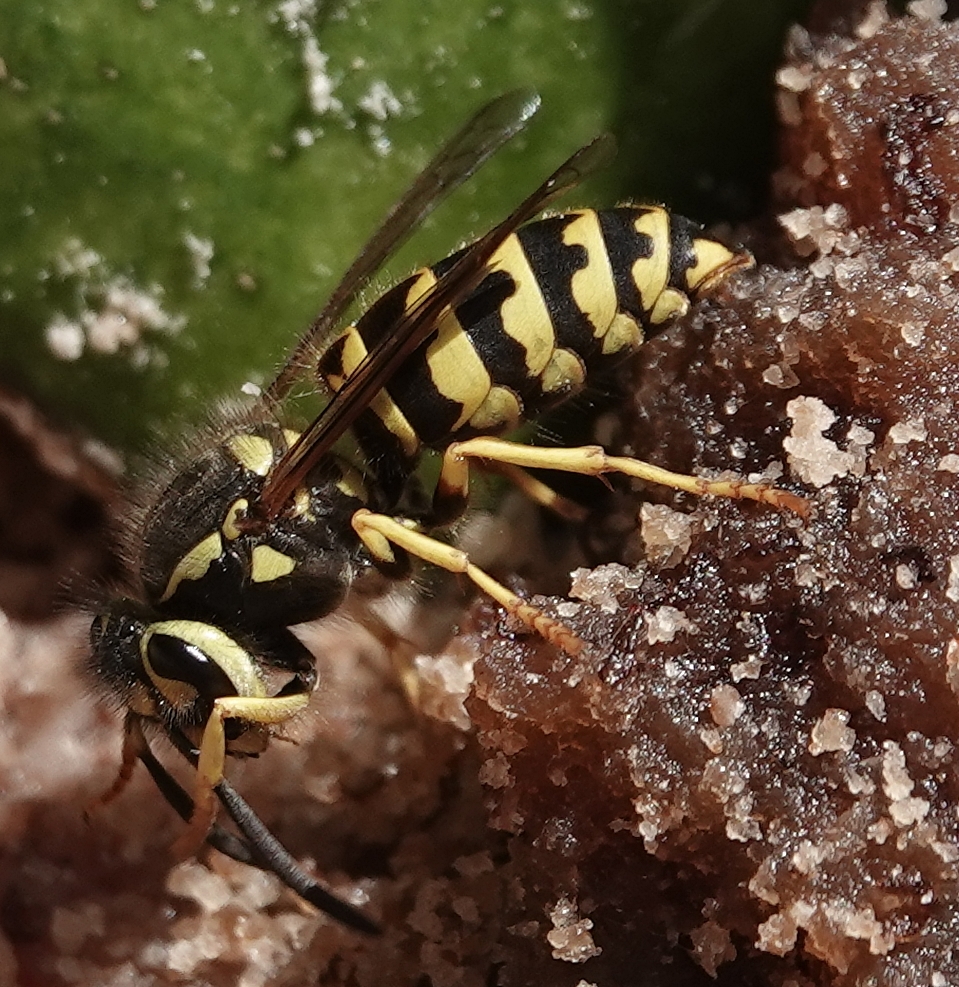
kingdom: Animalia
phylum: Arthropoda
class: Insecta
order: Hymenoptera
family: Vespidae
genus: Vespula
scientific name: Vespula pensylvanica
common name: Western yellowjacket
